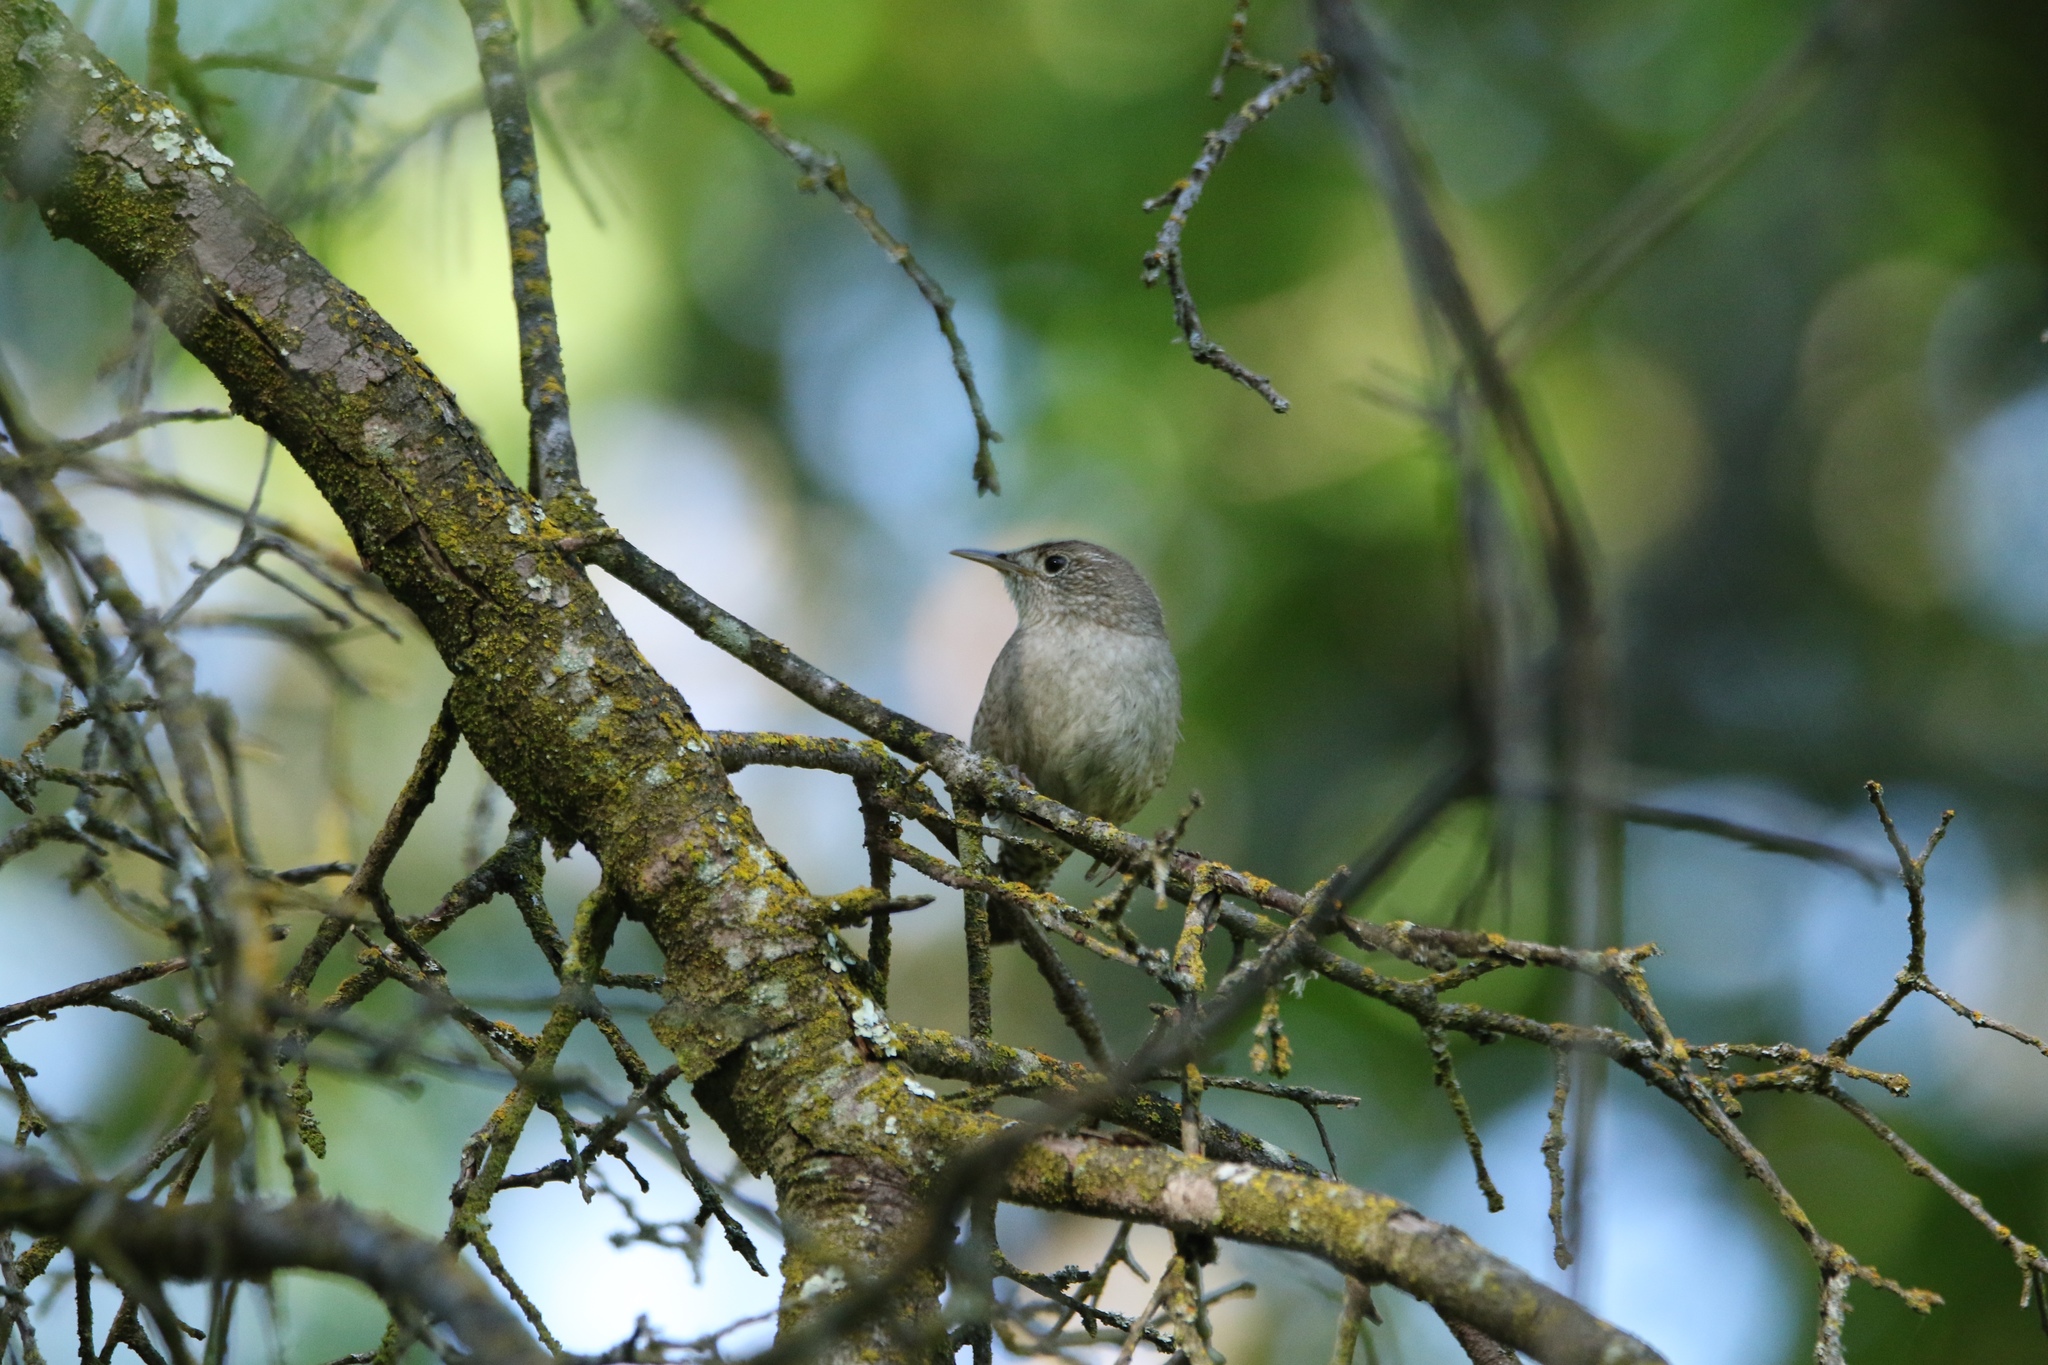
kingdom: Animalia
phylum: Chordata
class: Aves
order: Passeriformes
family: Troglodytidae
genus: Troglodytes
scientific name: Troglodytes aedon
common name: House wren
